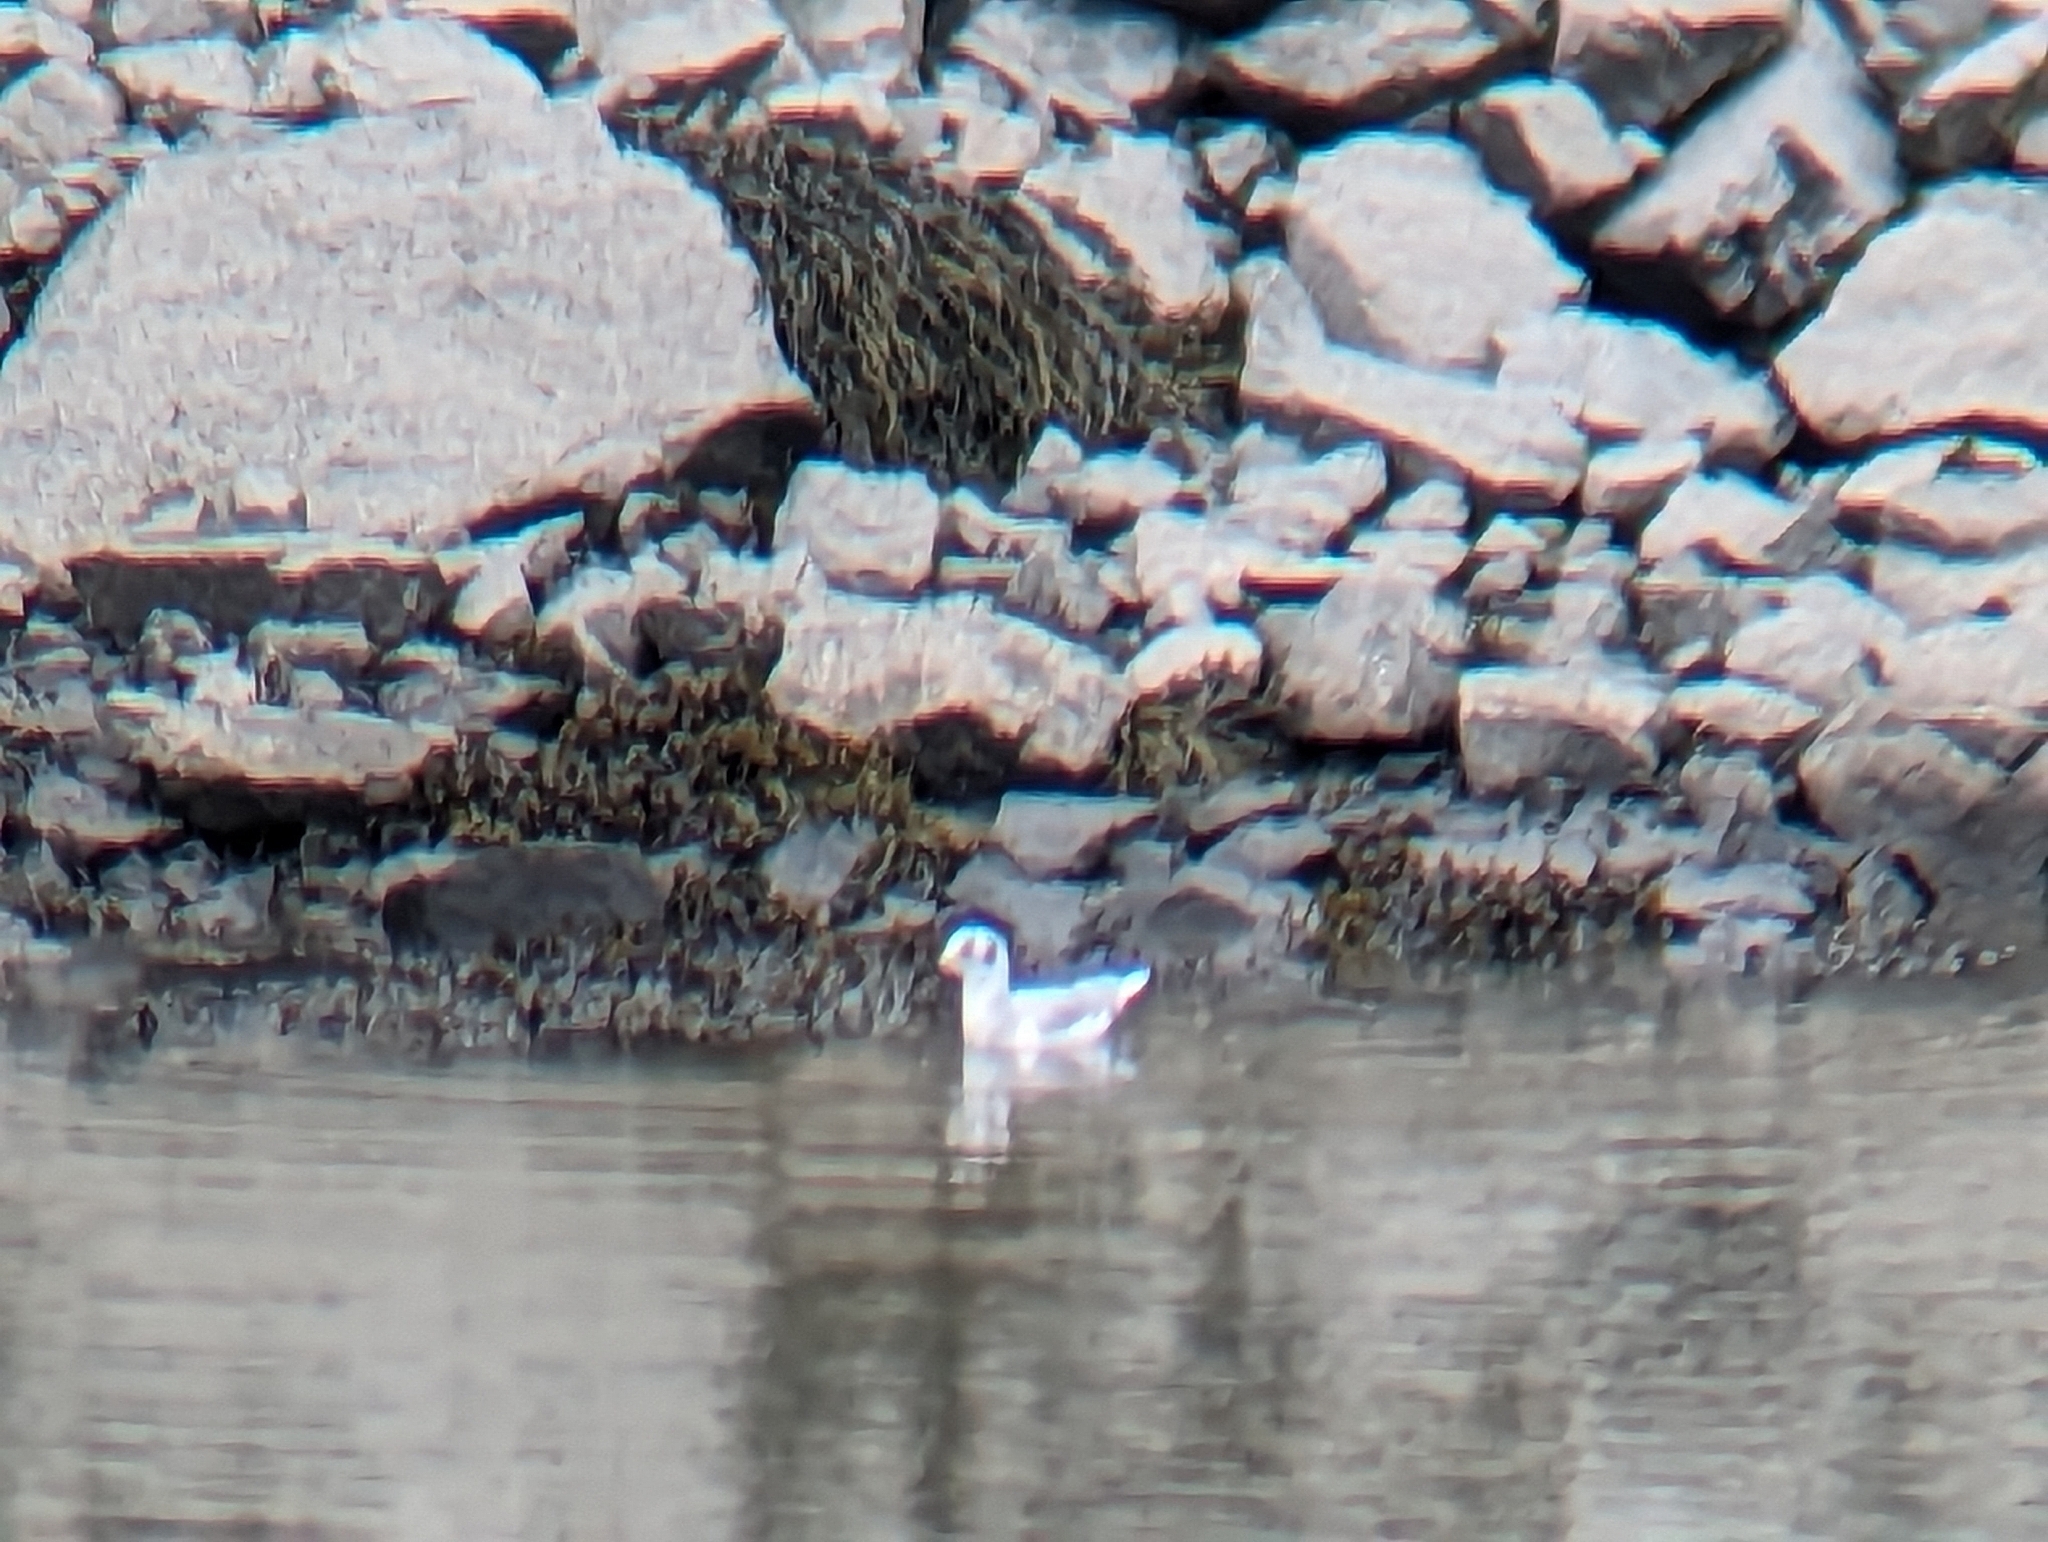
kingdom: Animalia
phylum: Chordata
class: Aves
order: Charadriiformes
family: Laridae
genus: Chroicocephalus
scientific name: Chroicocephalus philadelphia
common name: Bonaparte's gull
